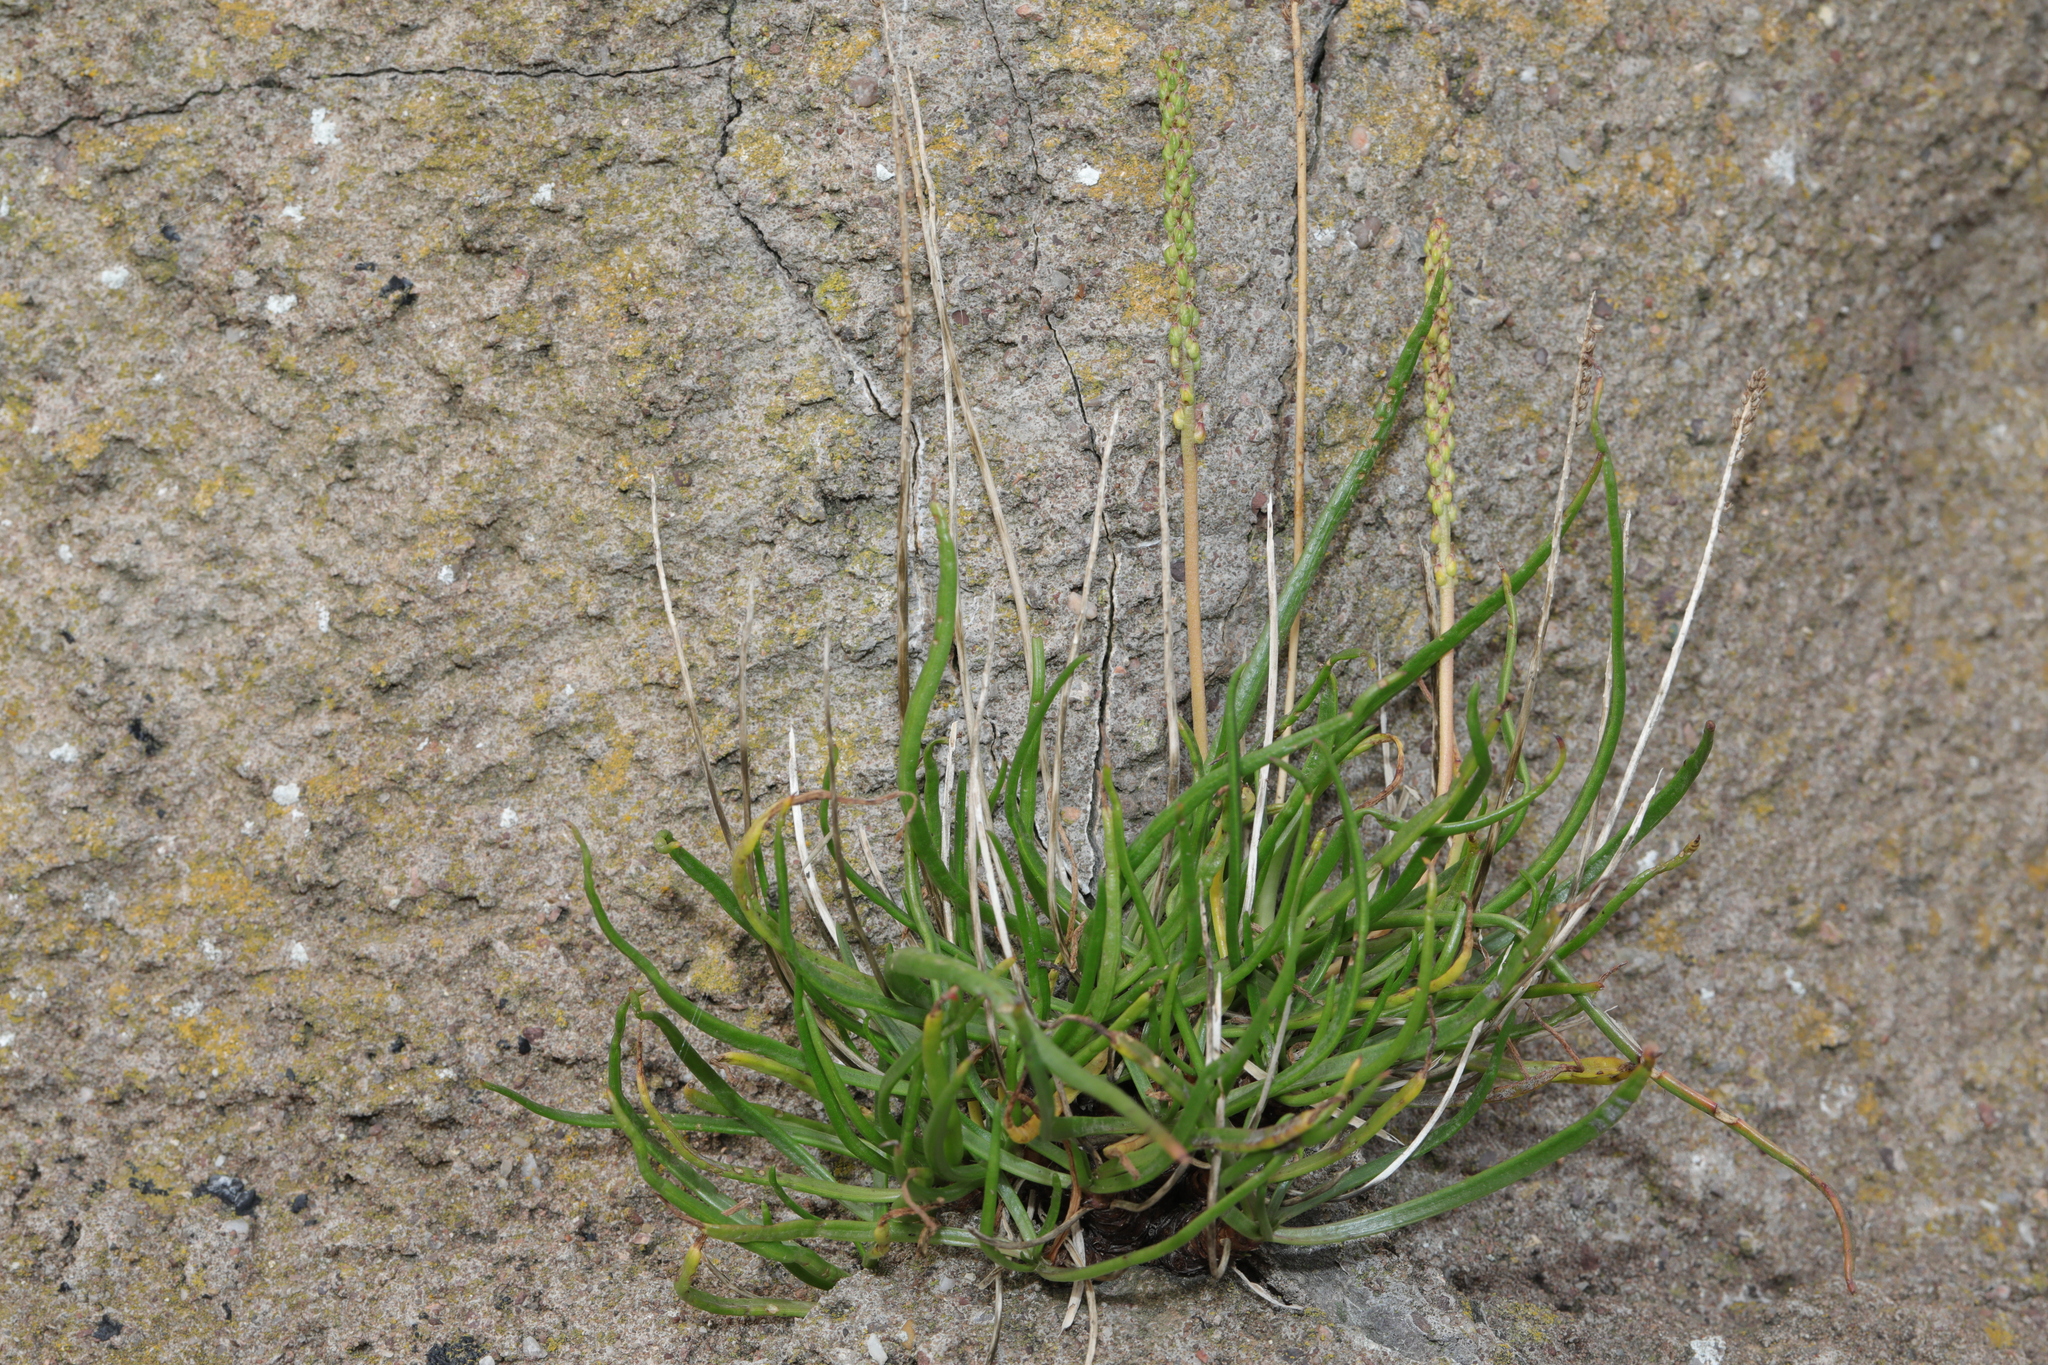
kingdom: Plantae
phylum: Tracheophyta
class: Magnoliopsida
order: Lamiales
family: Plantaginaceae
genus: Plantago
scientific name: Plantago maritima
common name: Sea plantain
